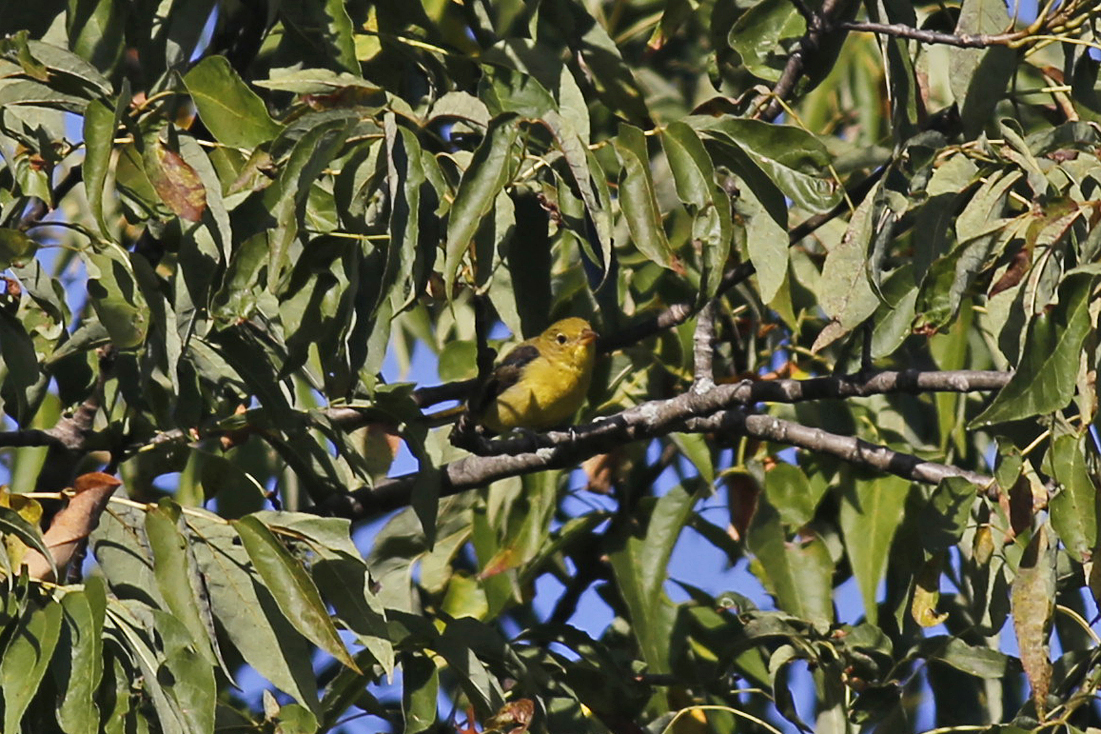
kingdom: Animalia
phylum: Chordata
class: Aves
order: Passeriformes
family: Cardinalidae
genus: Piranga
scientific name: Piranga olivacea
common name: Scarlet tanager
